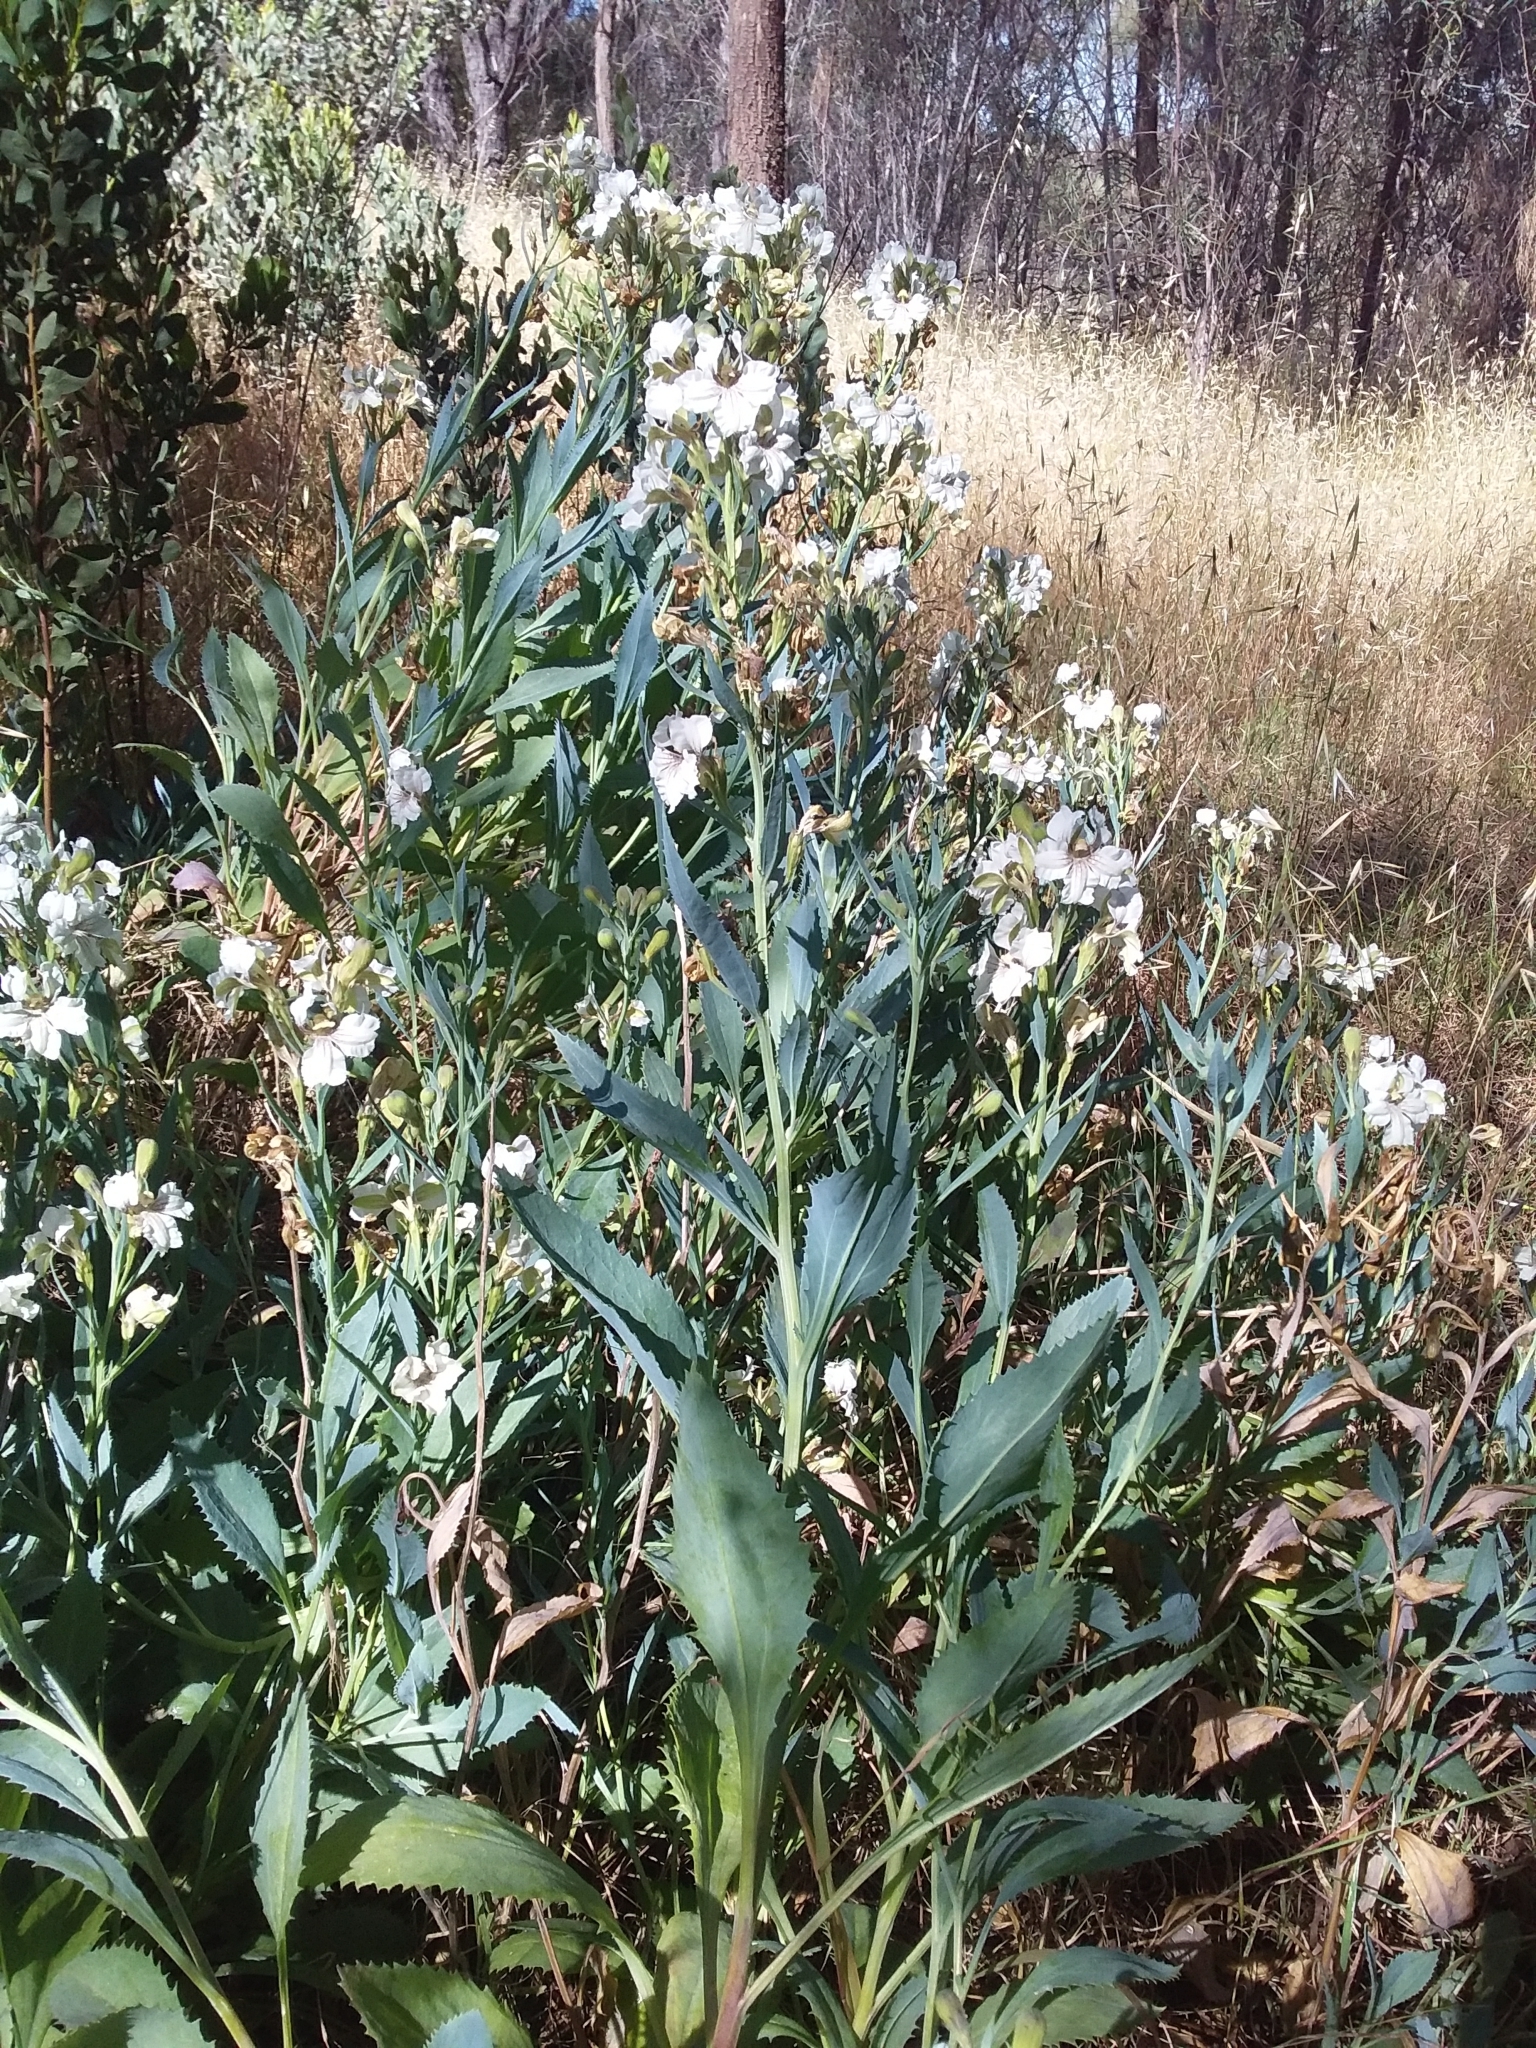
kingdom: Plantae
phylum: Tracheophyta
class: Magnoliopsida
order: Asterales
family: Goodeniaceae
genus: Goodenia
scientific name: Goodenia albiflora
